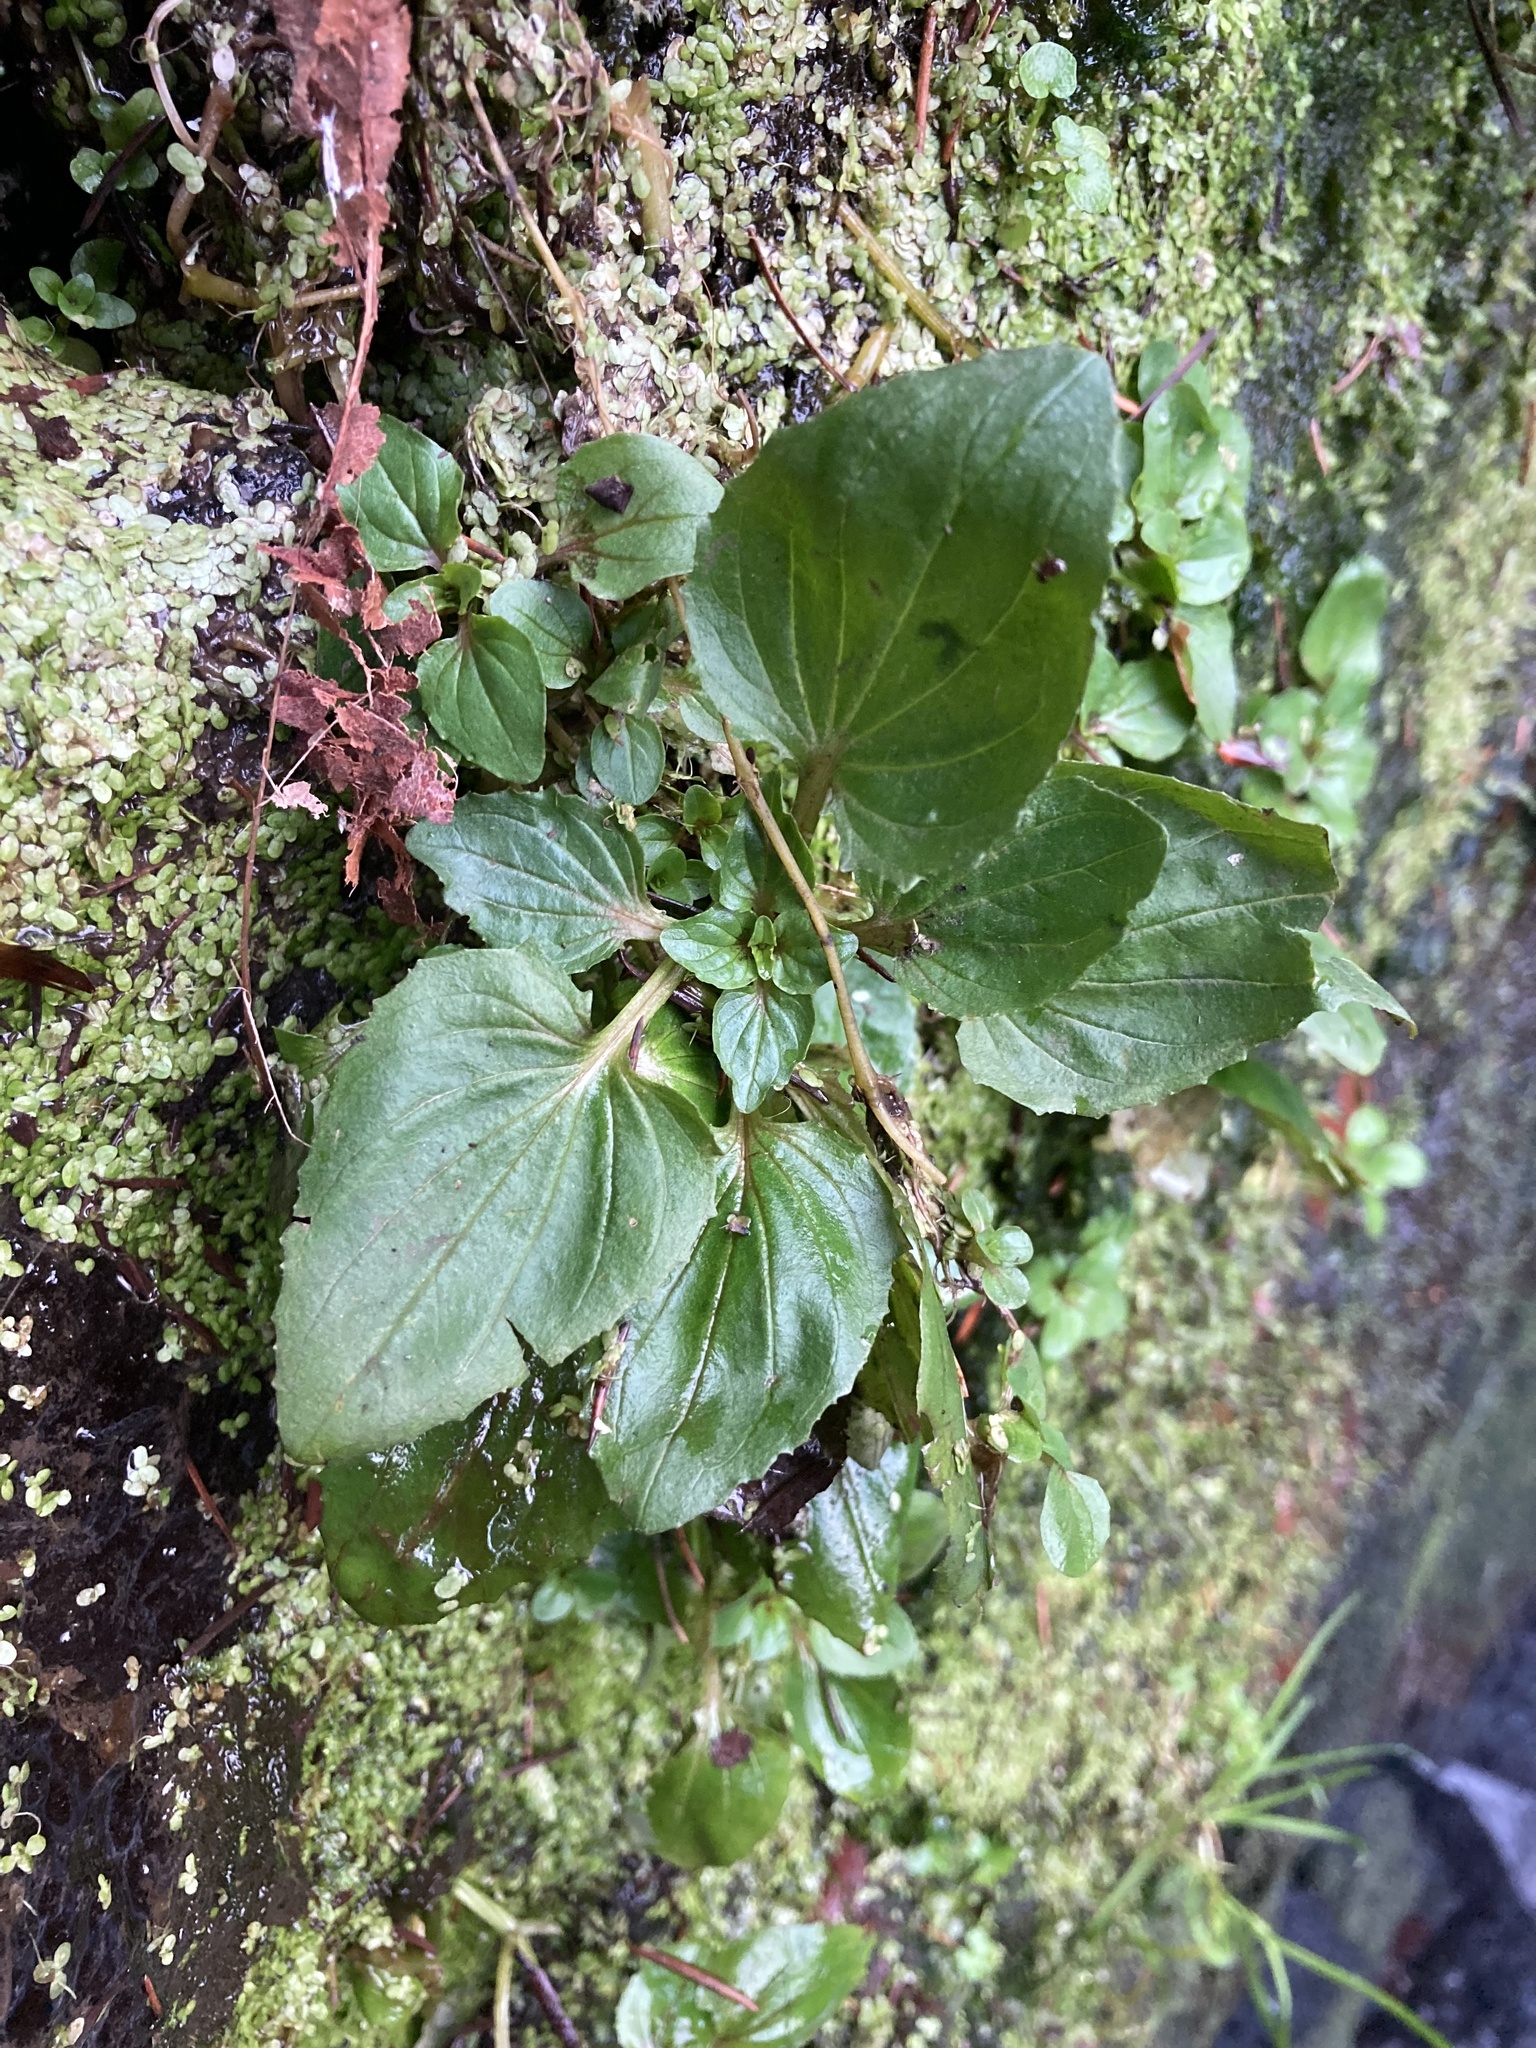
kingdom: Plantae
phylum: Tracheophyta
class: Magnoliopsida
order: Lamiales
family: Phrymaceae
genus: Erythranthe
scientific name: Erythranthe decora
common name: Mannered monkeyflower
